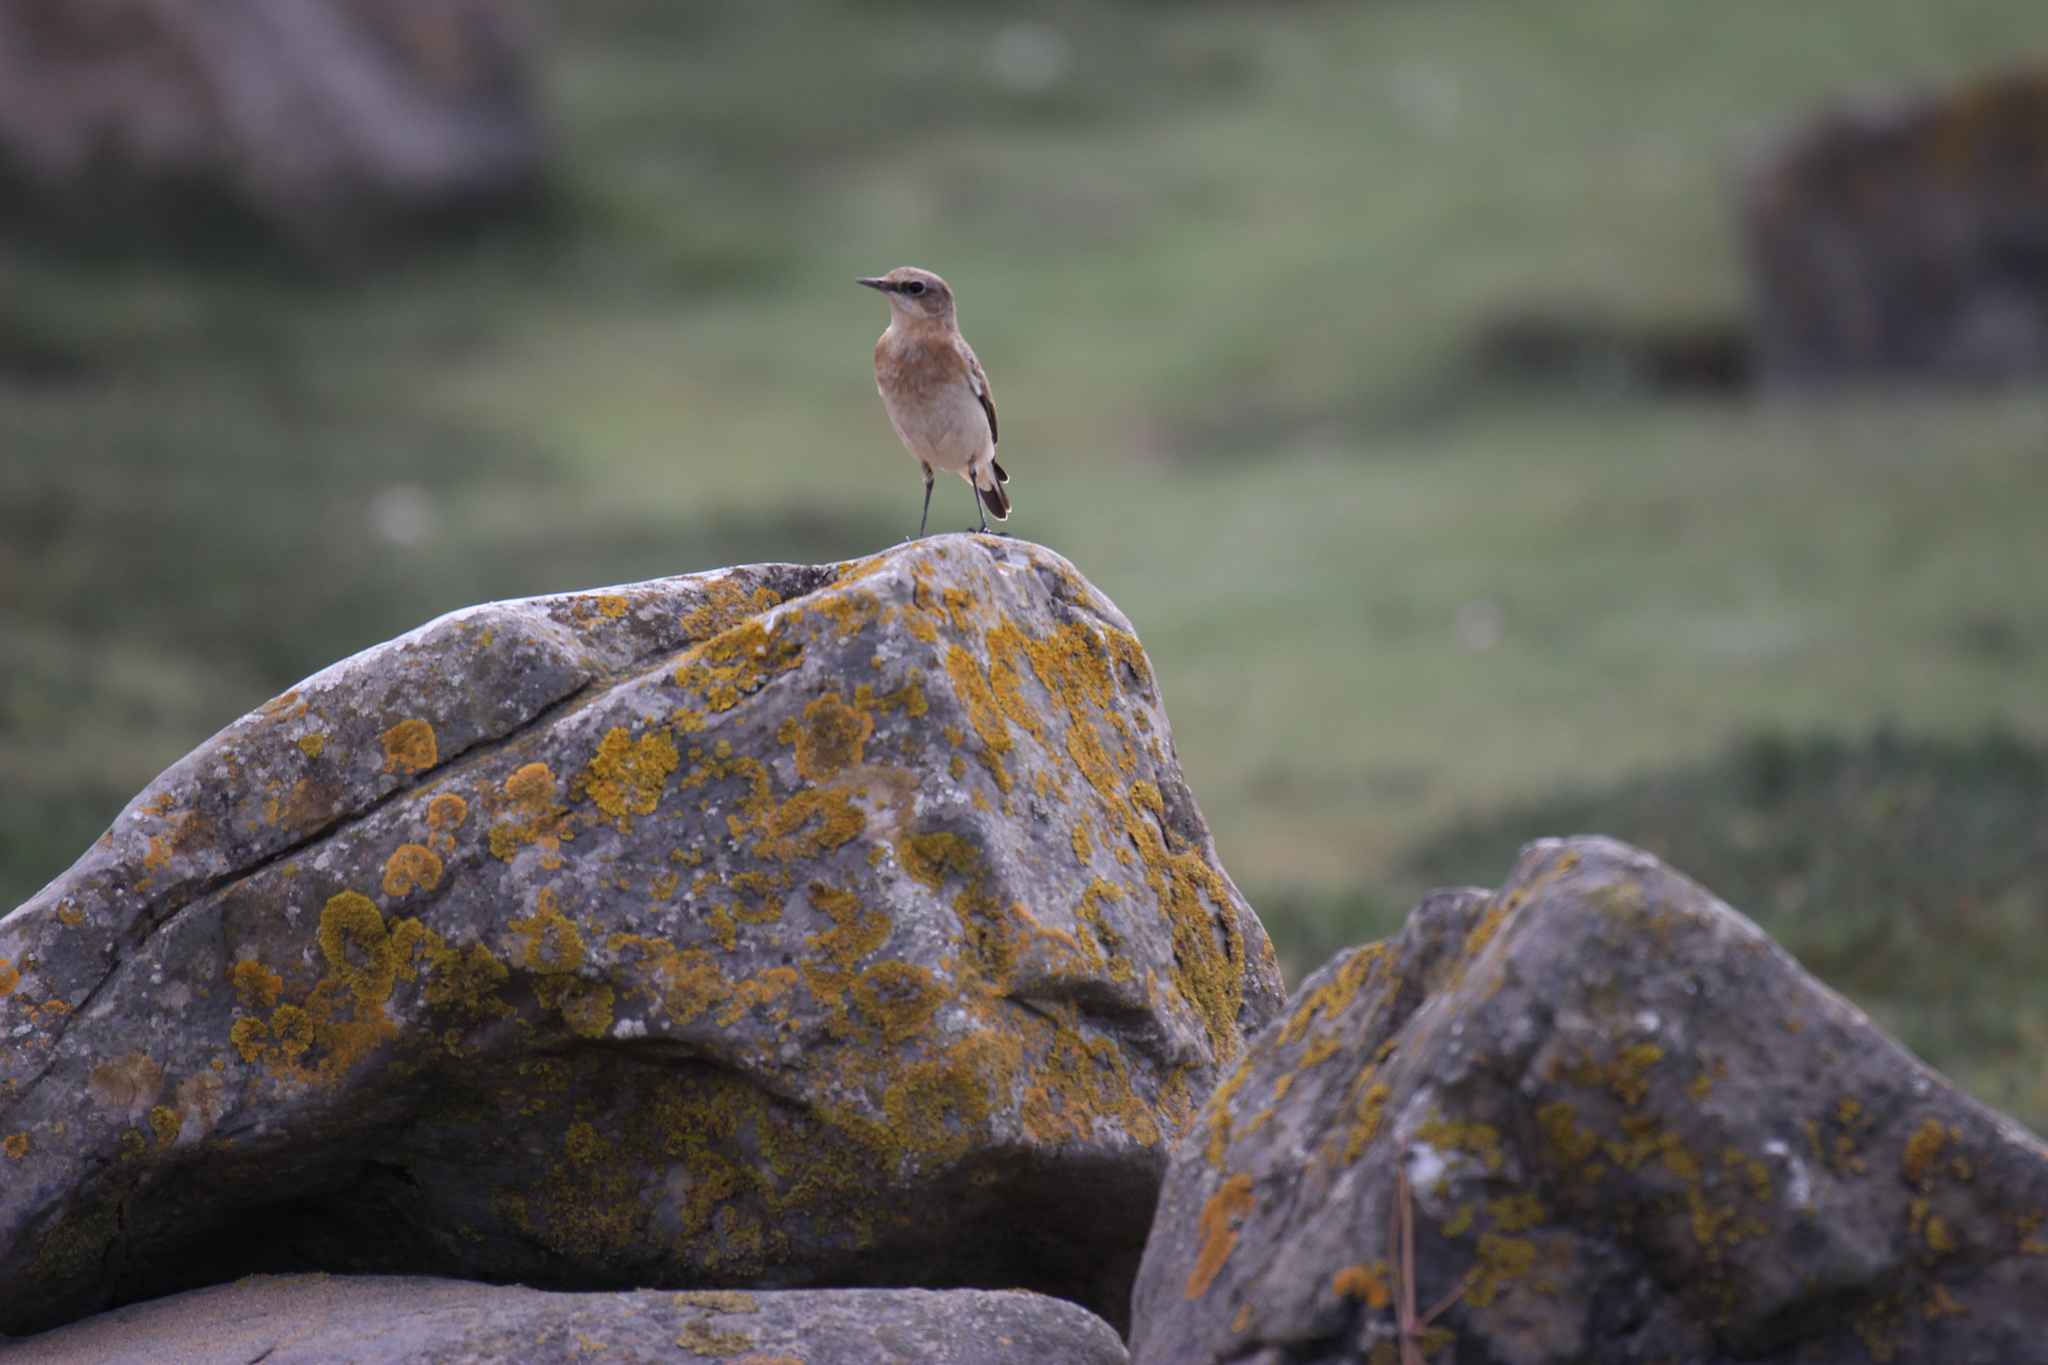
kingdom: Animalia
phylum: Chordata
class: Aves
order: Passeriformes
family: Muscicapidae
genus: Oenanthe
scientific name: Oenanthe oenanthe
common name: Northern wheatear
